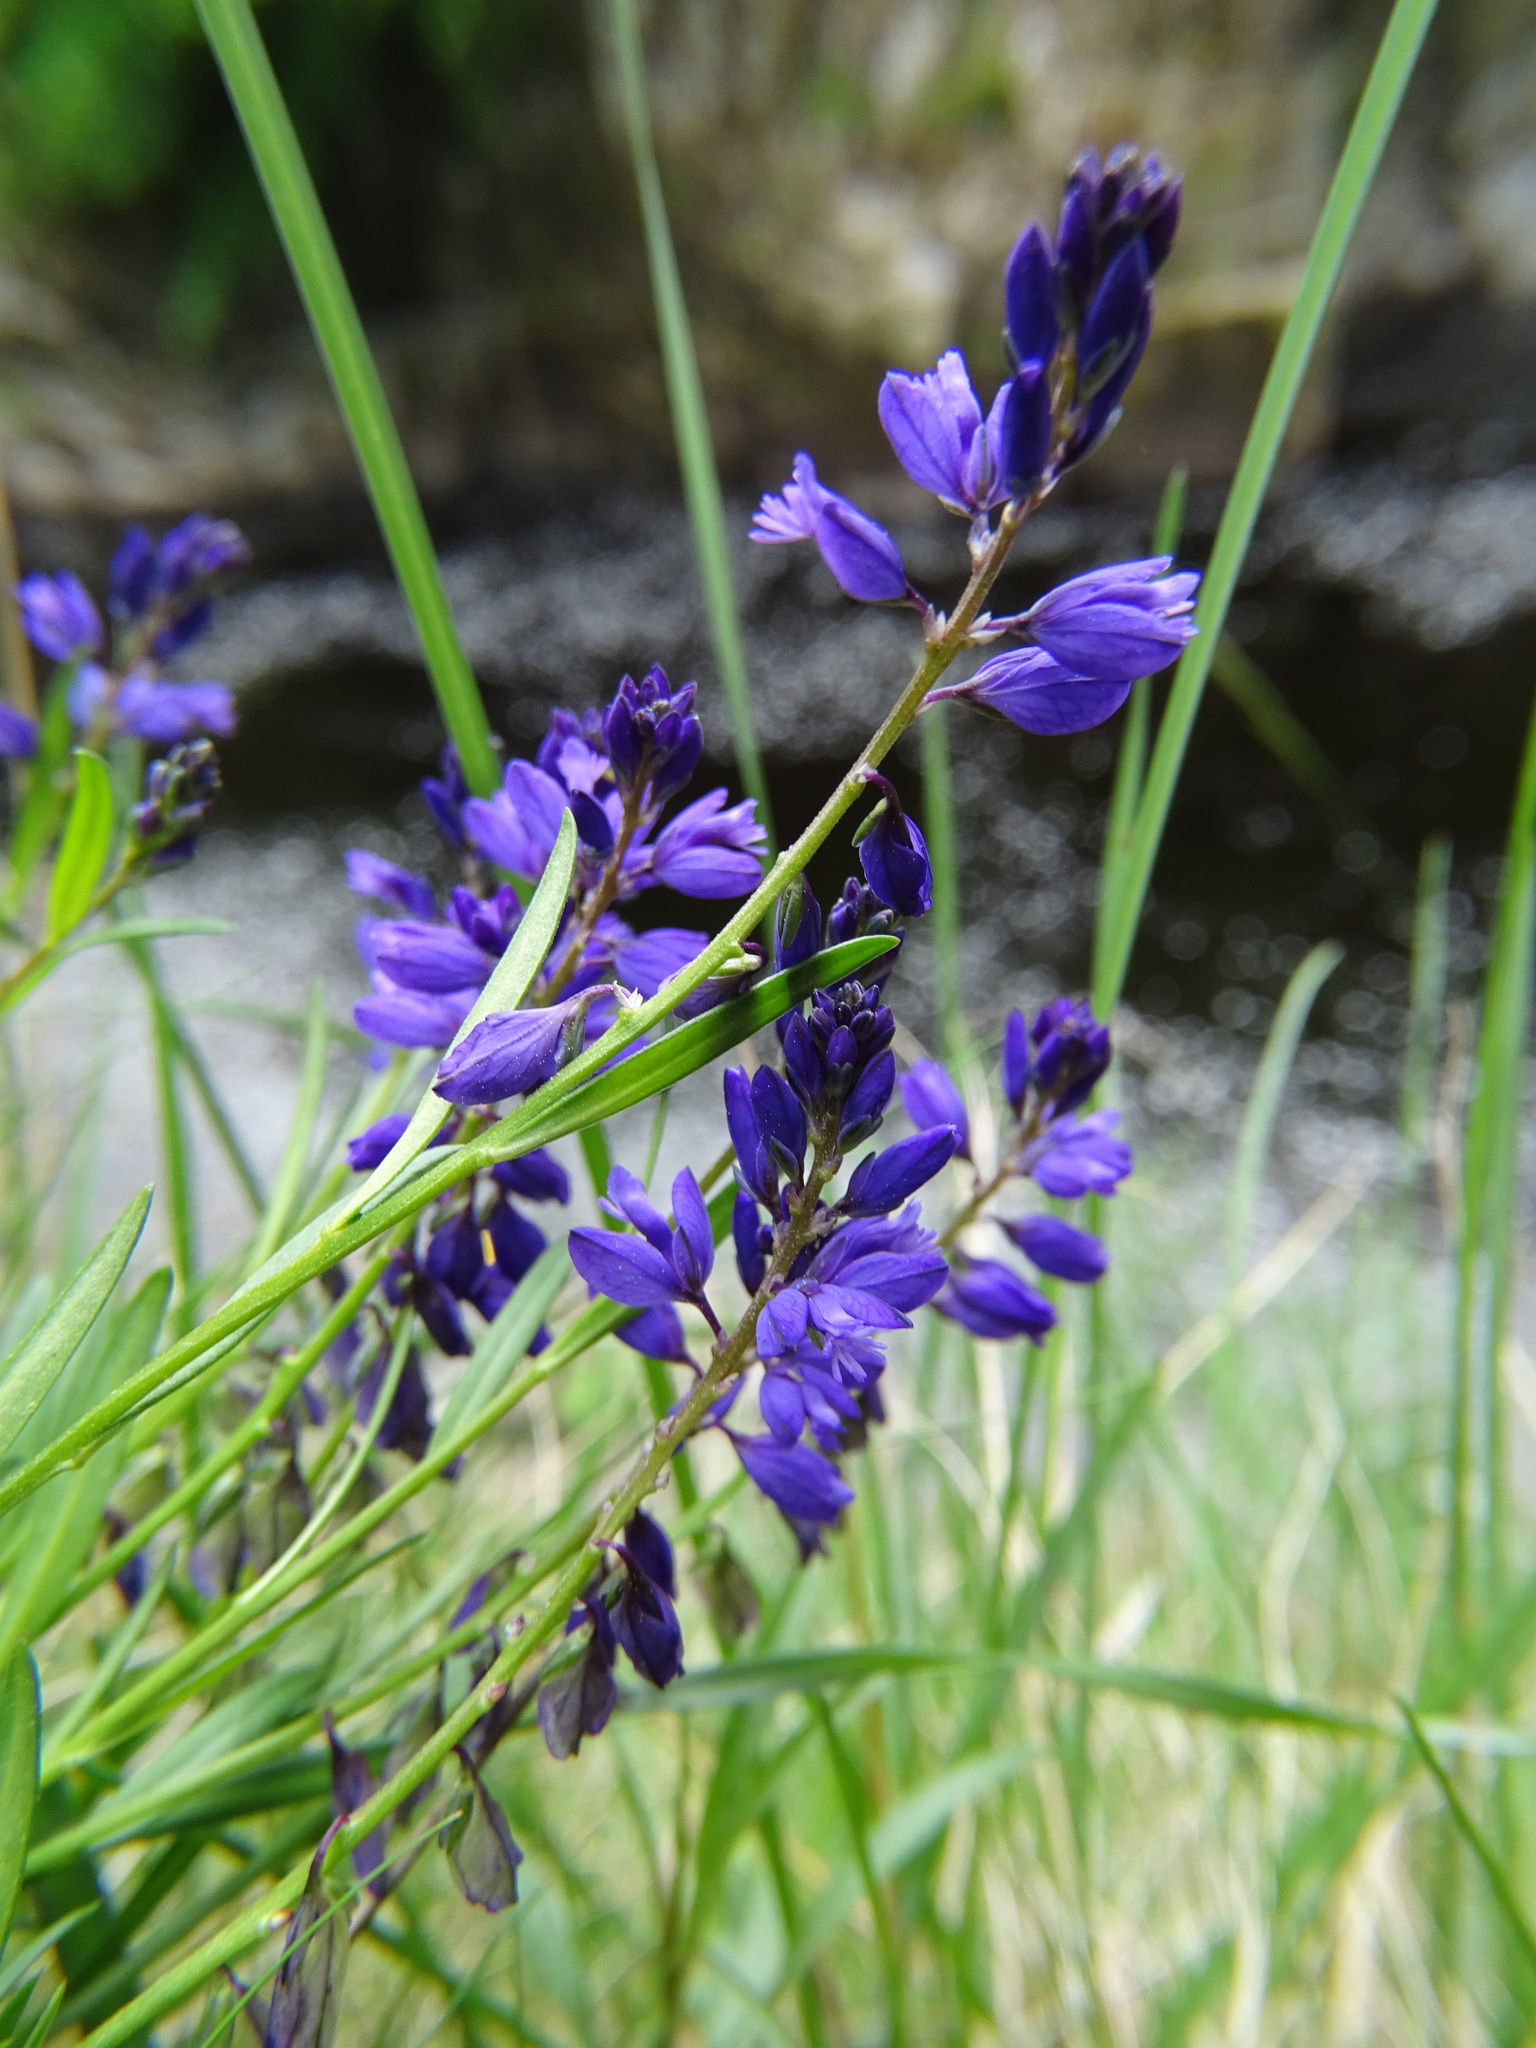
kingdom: Plantae
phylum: Tracheophyta
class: Magnoliopsida
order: Fabales
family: Polygalaceae
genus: Polygala
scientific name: Polygala vulgaris
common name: Common milkwort
